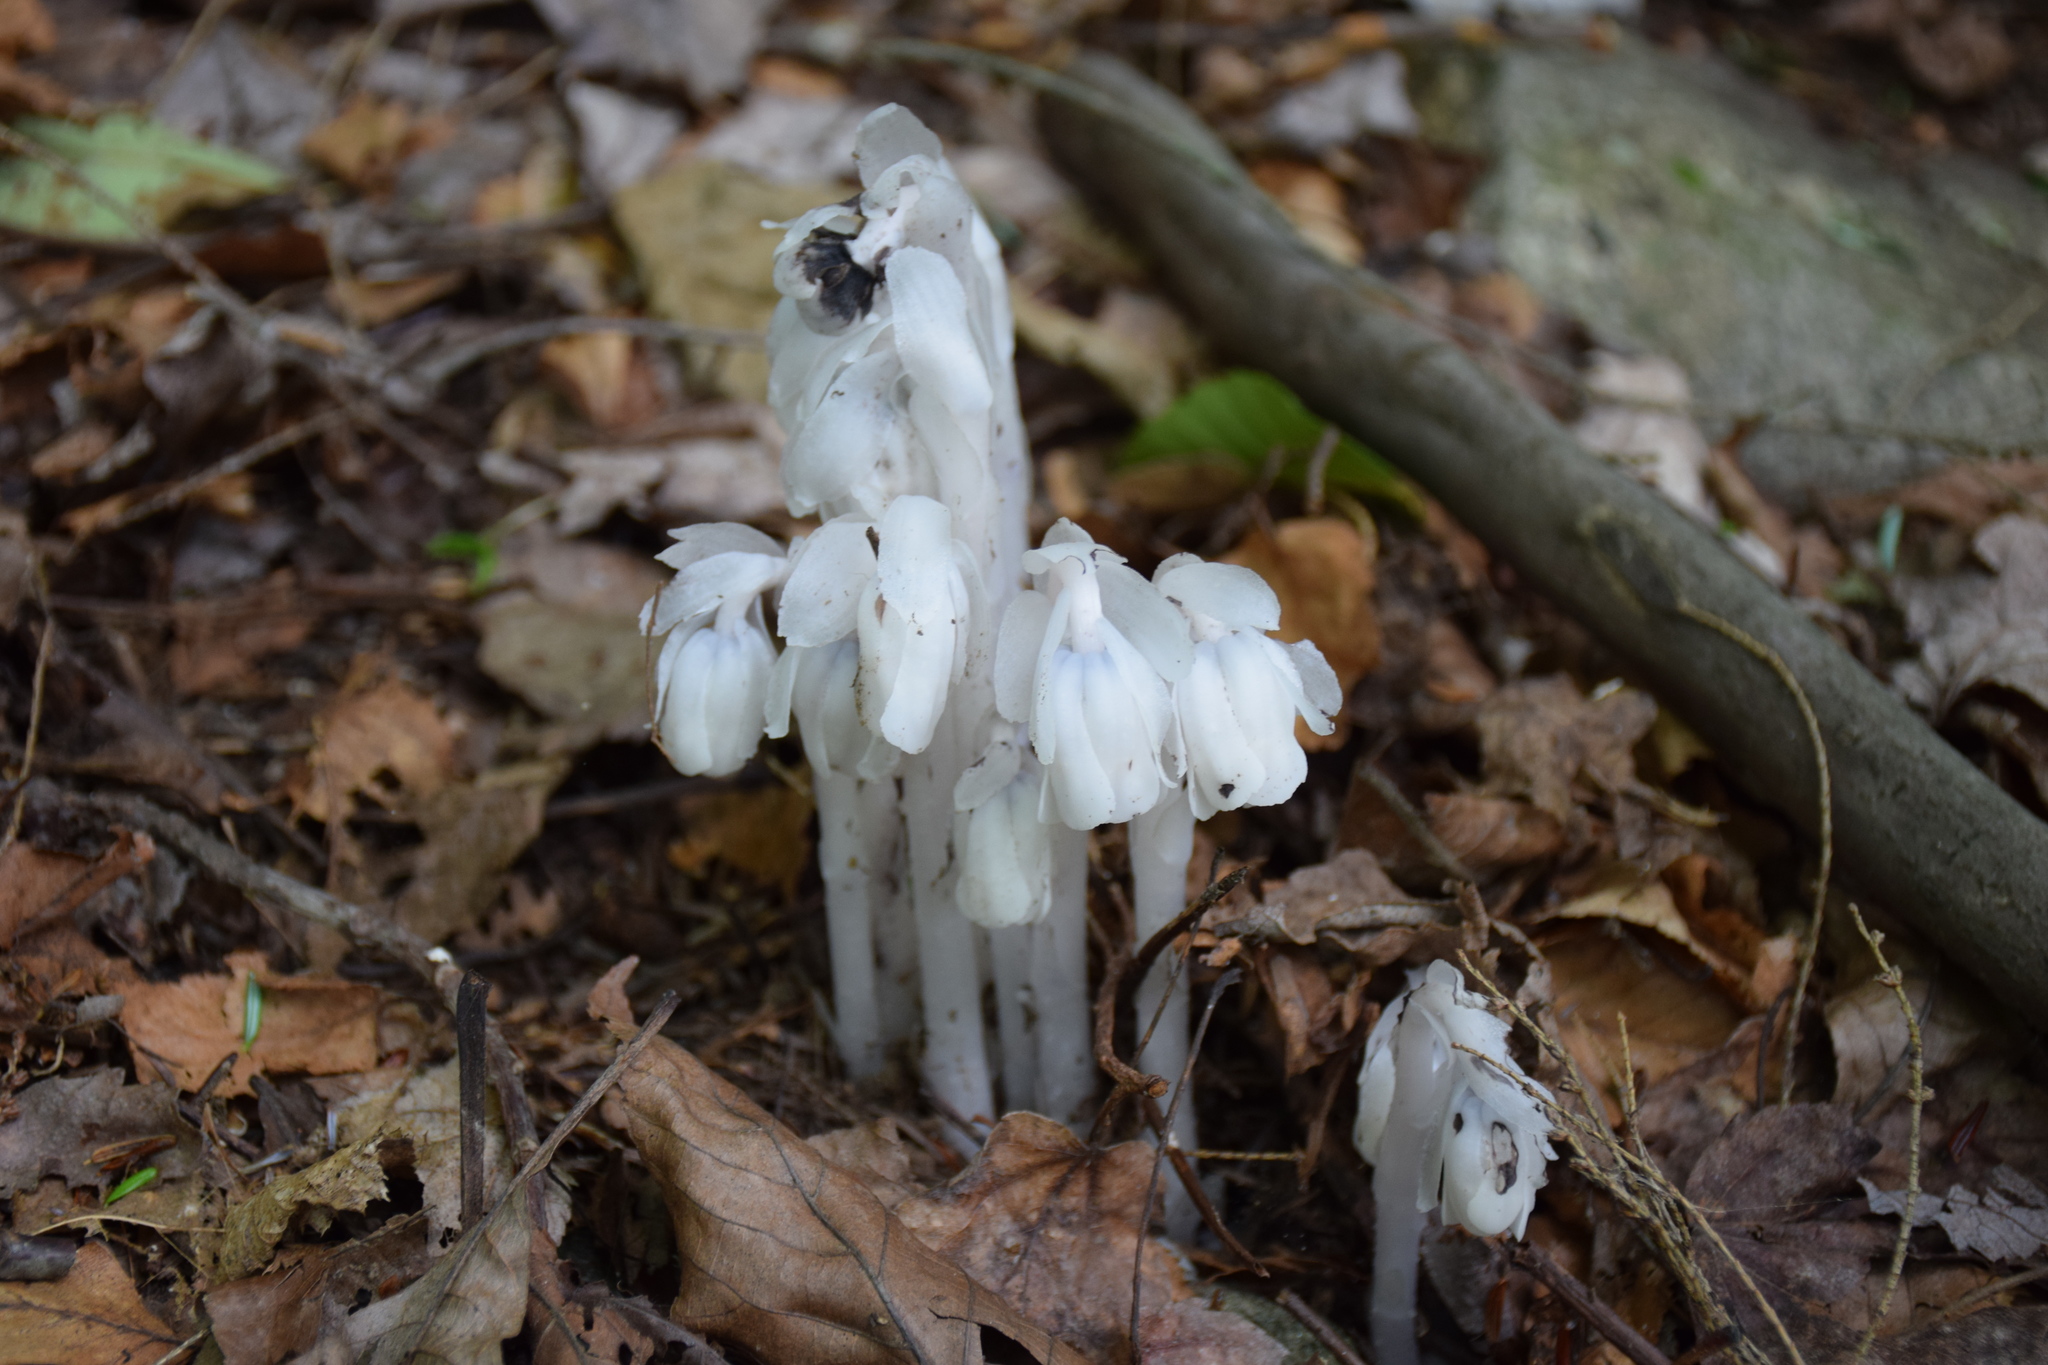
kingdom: Plantae
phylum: Tracheophyta
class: Magnoliopsida
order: Ericales
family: Ericaceae
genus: Monotropa
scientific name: Monotropa uniflora
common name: Convulsion root
